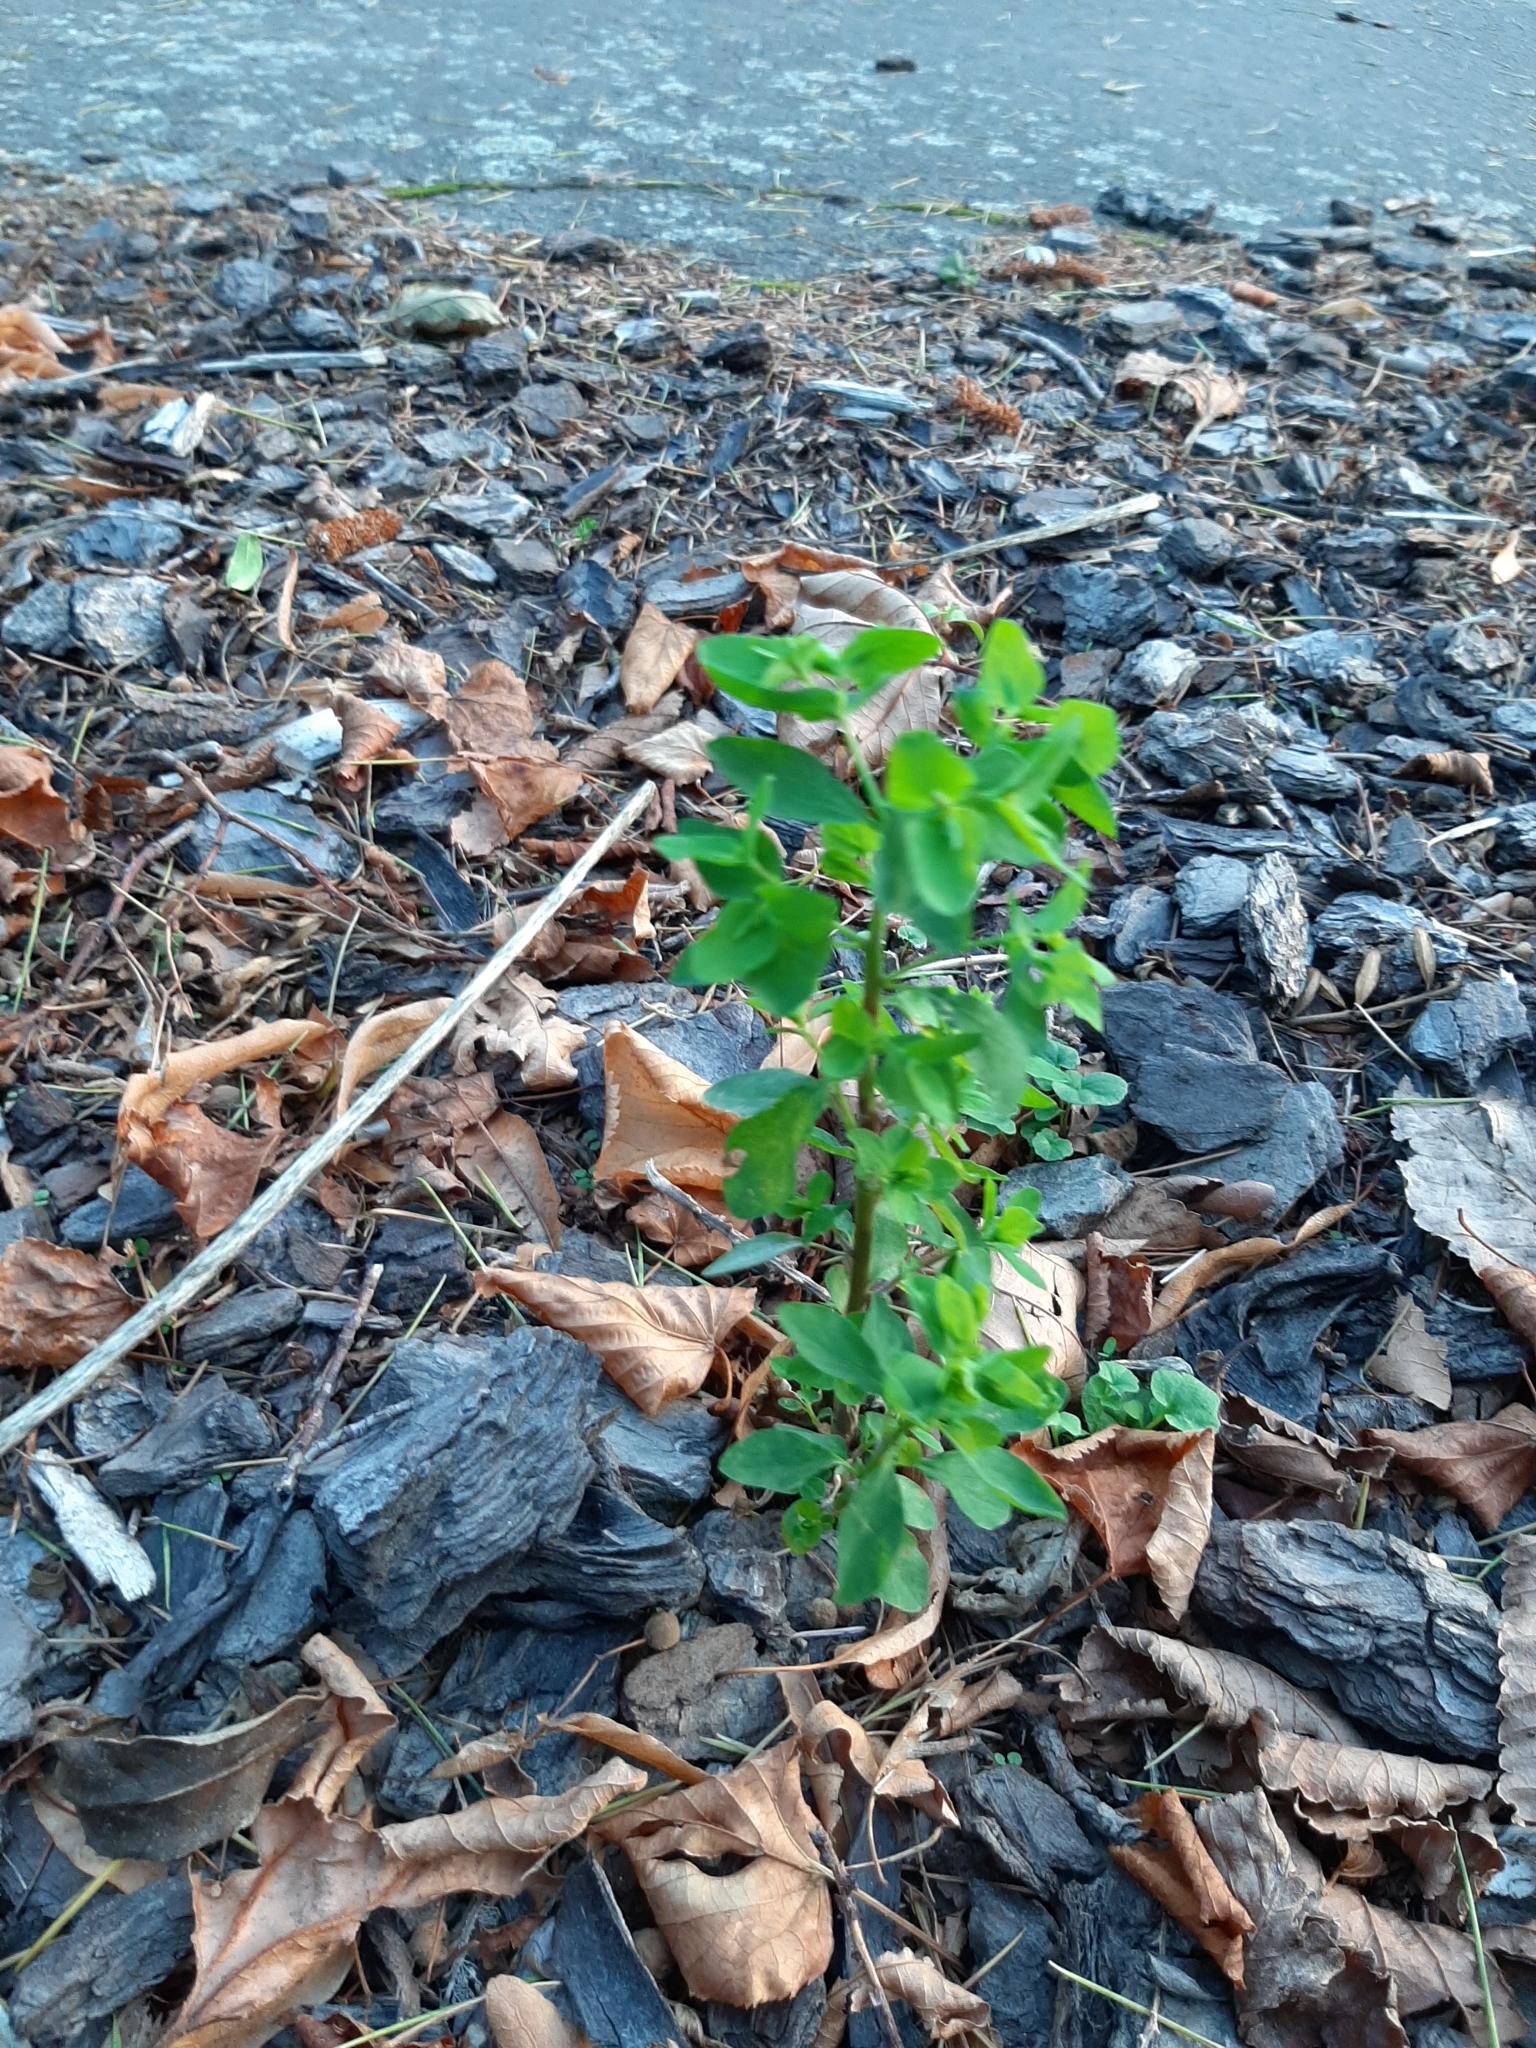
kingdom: Plantae
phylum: Tracheophyta
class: Magnoliopsida
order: Malpighiales
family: Euphorbiaceae
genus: Euphorbia
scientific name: Euphorbia peplus
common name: Petty spurge
